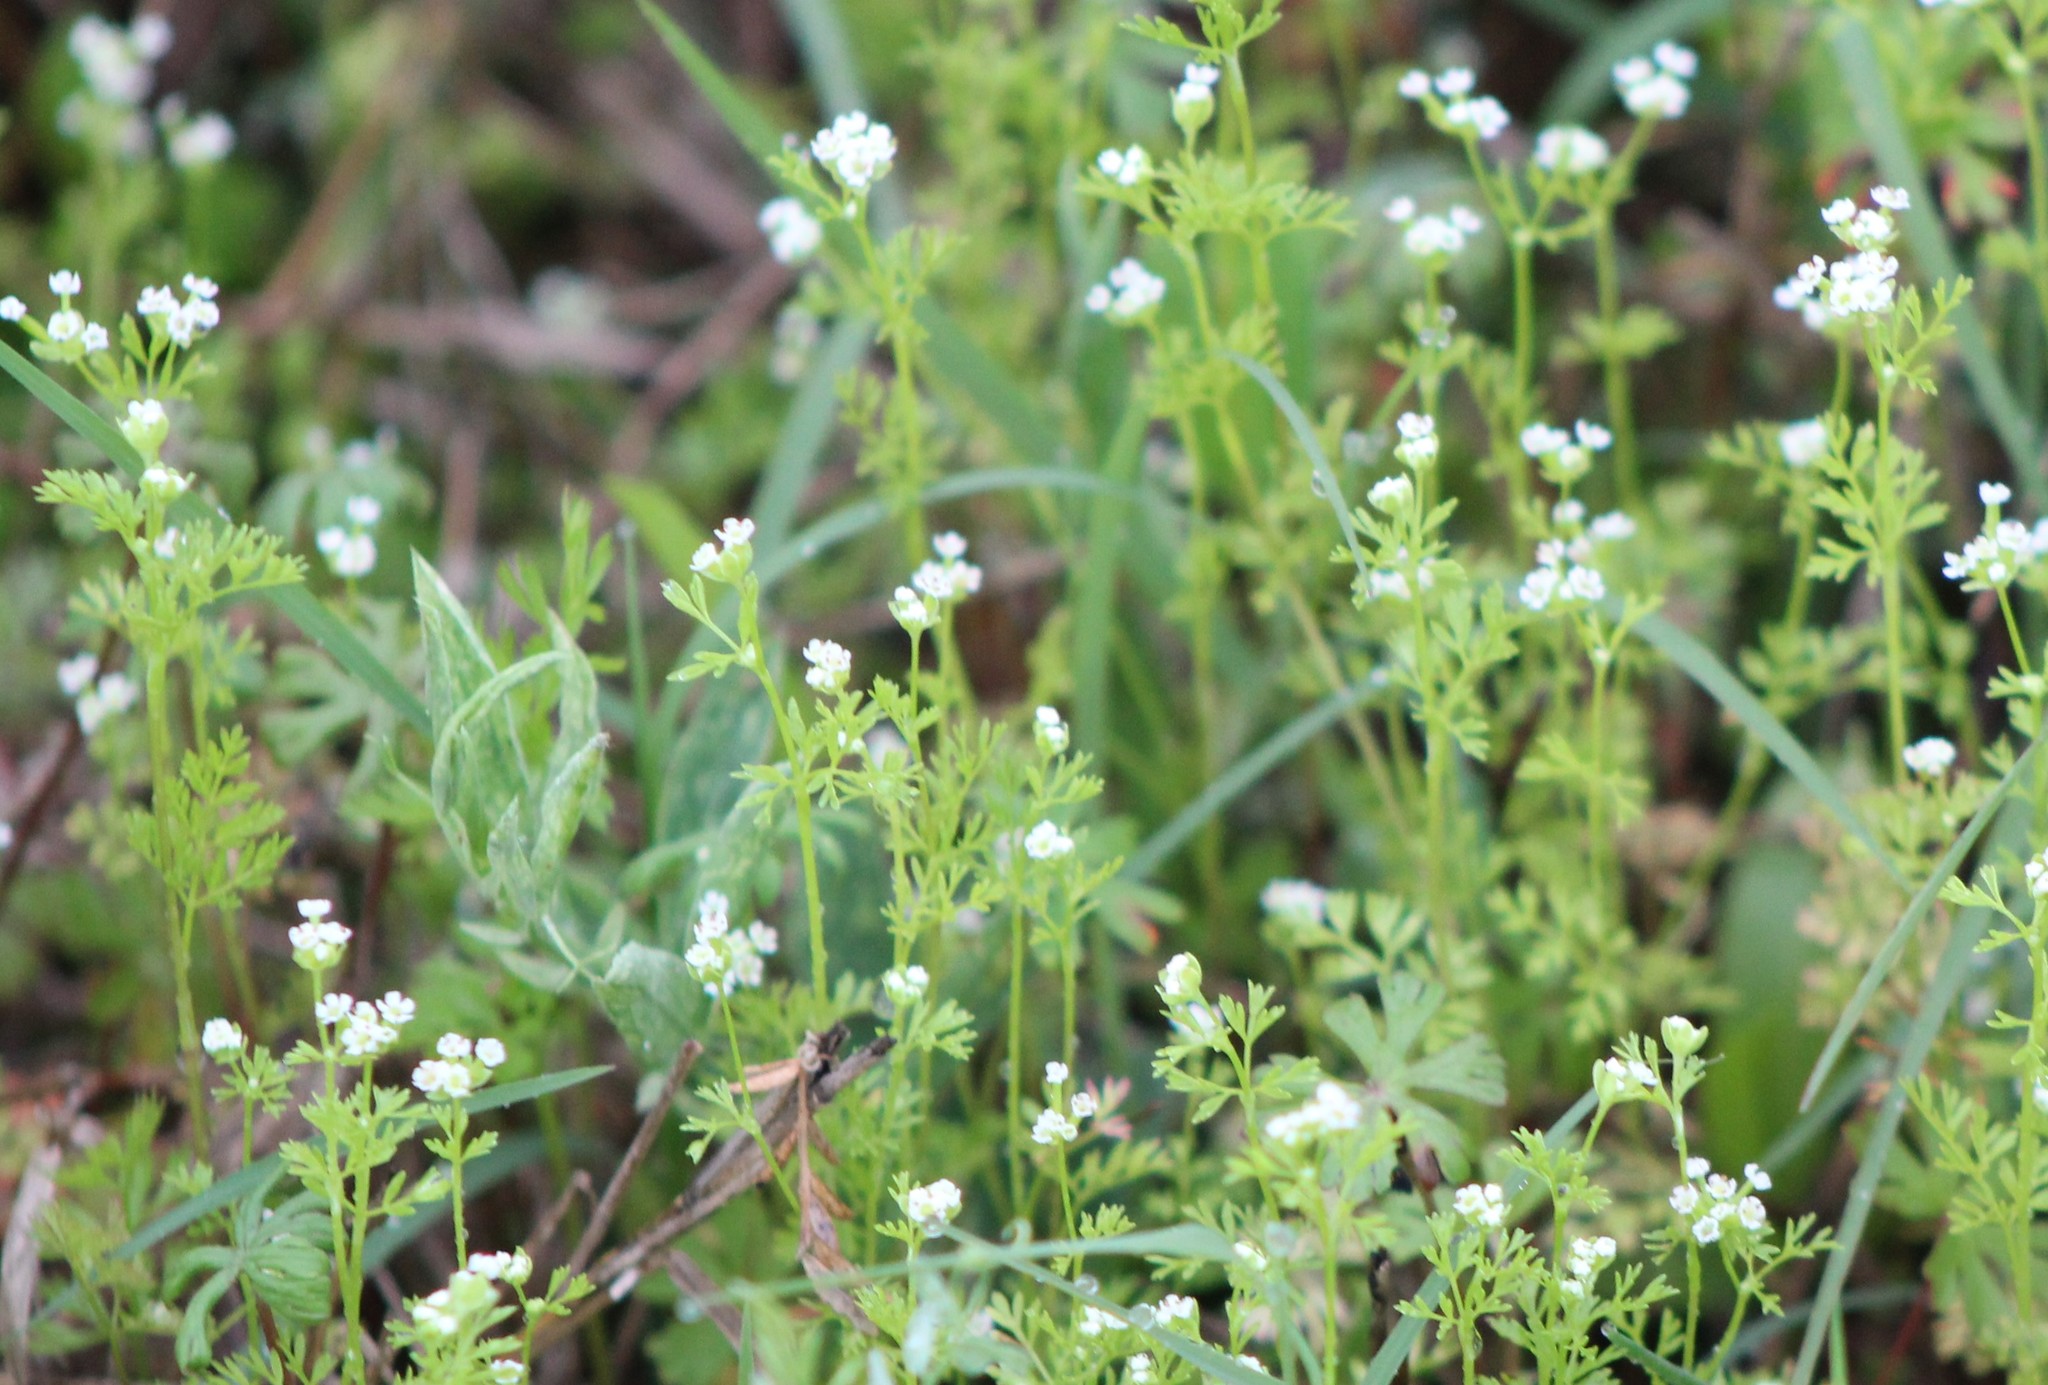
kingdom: Plantae
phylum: Tracheophyta
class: Magnoliopsida
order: Apiales
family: Apiaceae
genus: Chaerophyllum
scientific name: Chaerophyllum tainturieri
